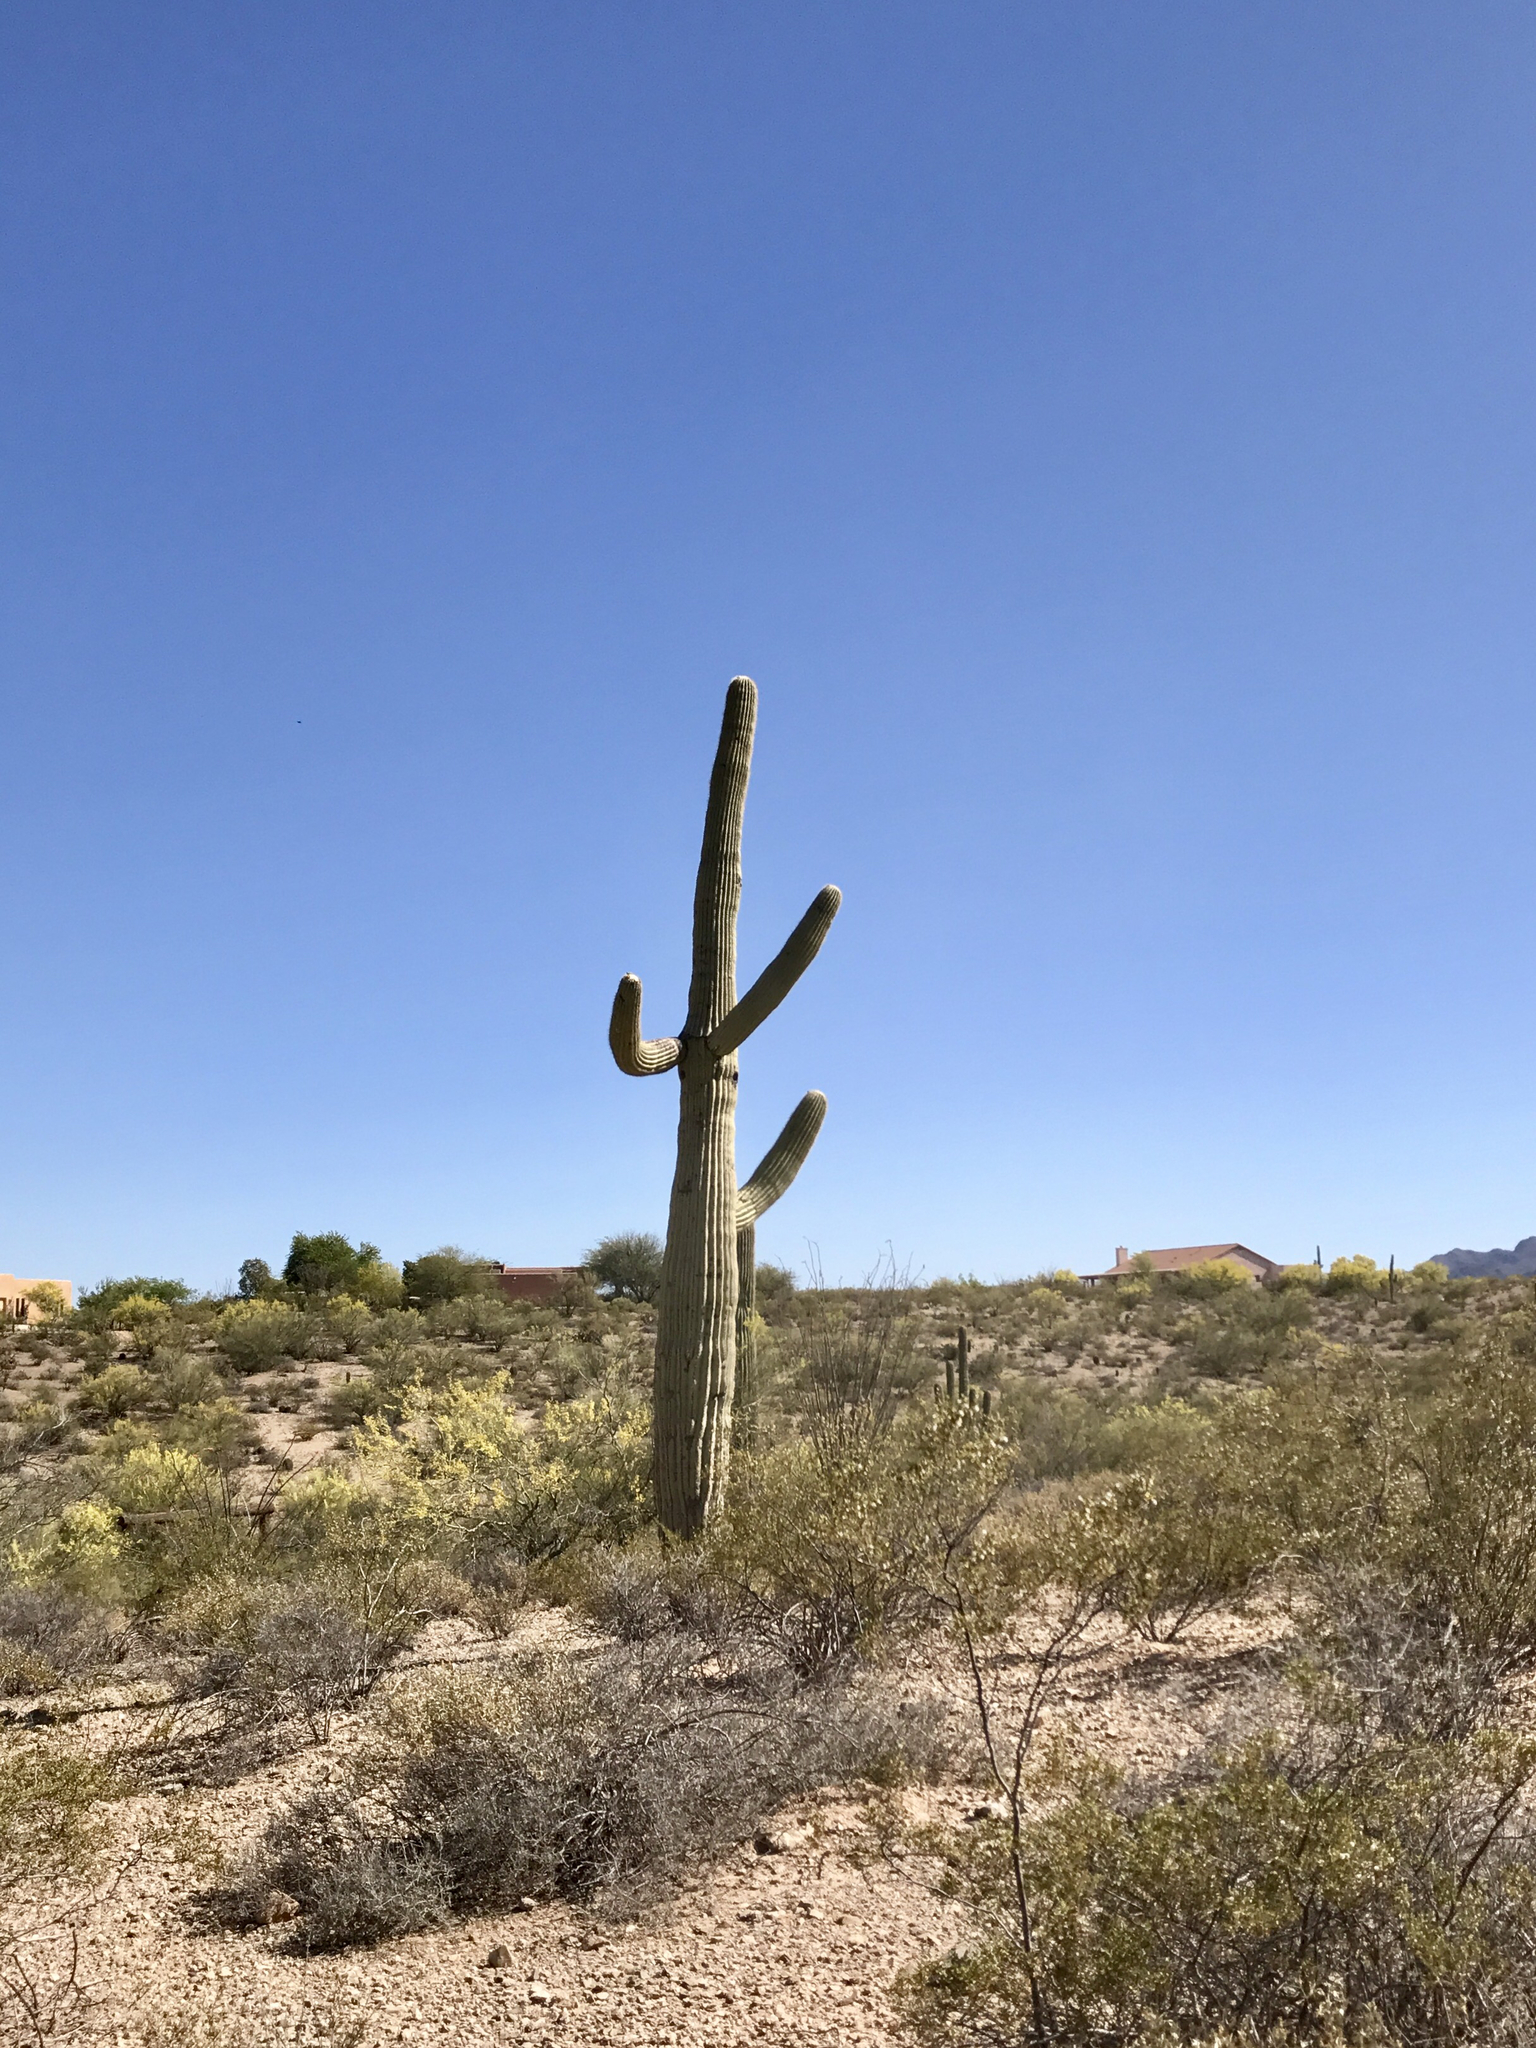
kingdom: Plantae
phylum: Tracheophyta
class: Magnoliopsida
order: Caryophyllales
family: Cactaceae
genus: Carnegiea
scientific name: Carnegiea gigantea
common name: Saguaro
